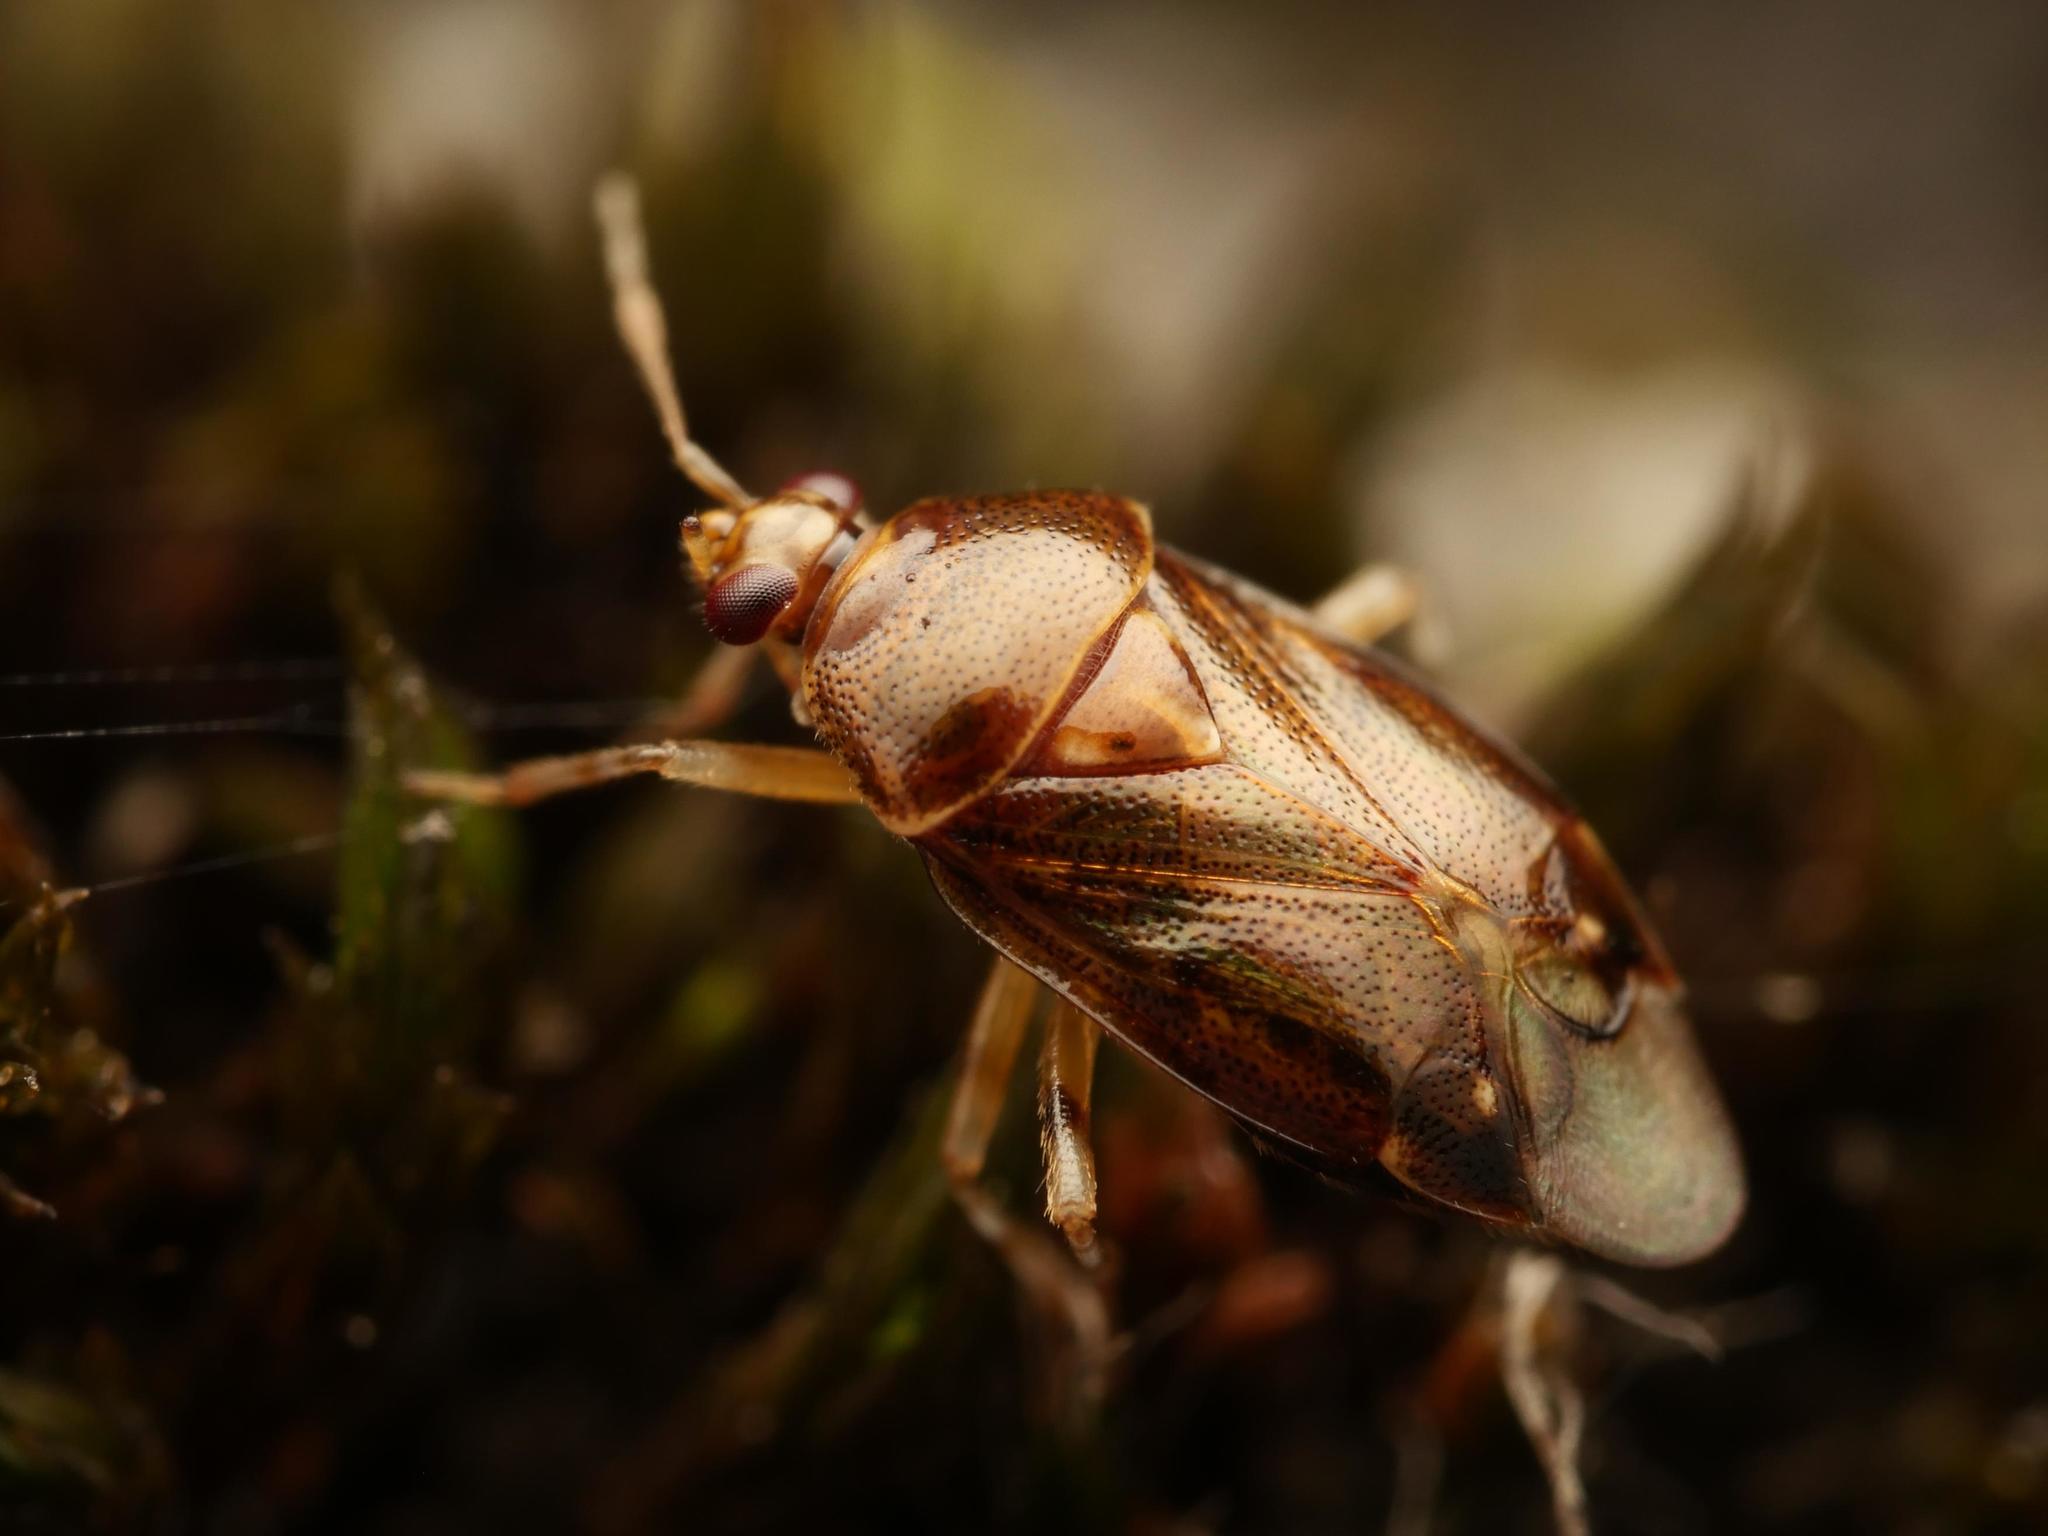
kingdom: Animalia
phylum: Arthropoda
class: Insecta
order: Hemiptera
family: Miridae
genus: Deraeocoris
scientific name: Deraeocoris lutescens
